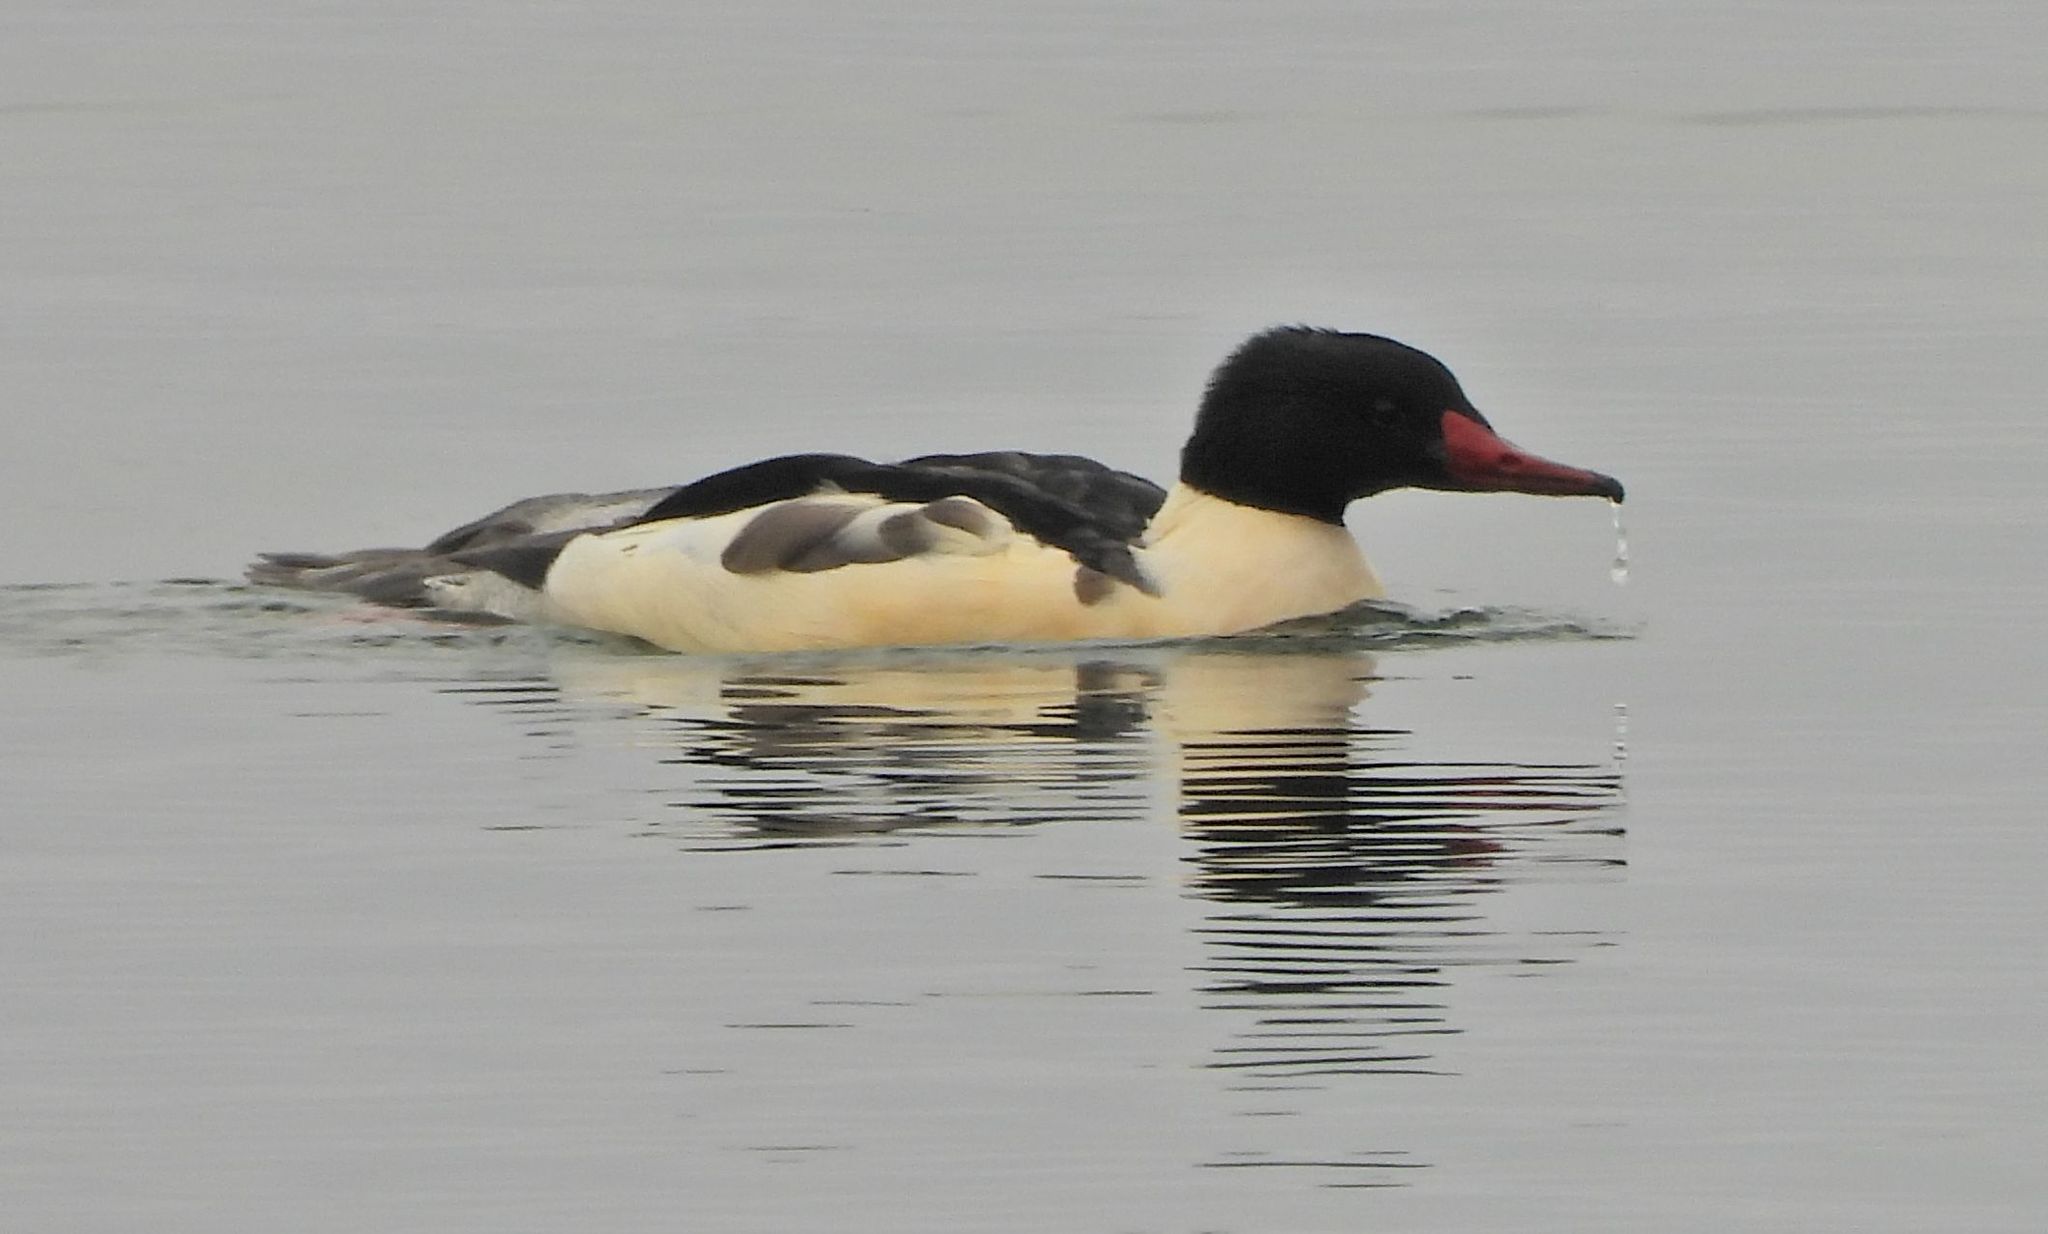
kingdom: Animalia
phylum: Chordata
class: Aves
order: Anseriformes
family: Anatidae
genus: Mergus
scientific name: Mergus merganser
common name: Common merganser
